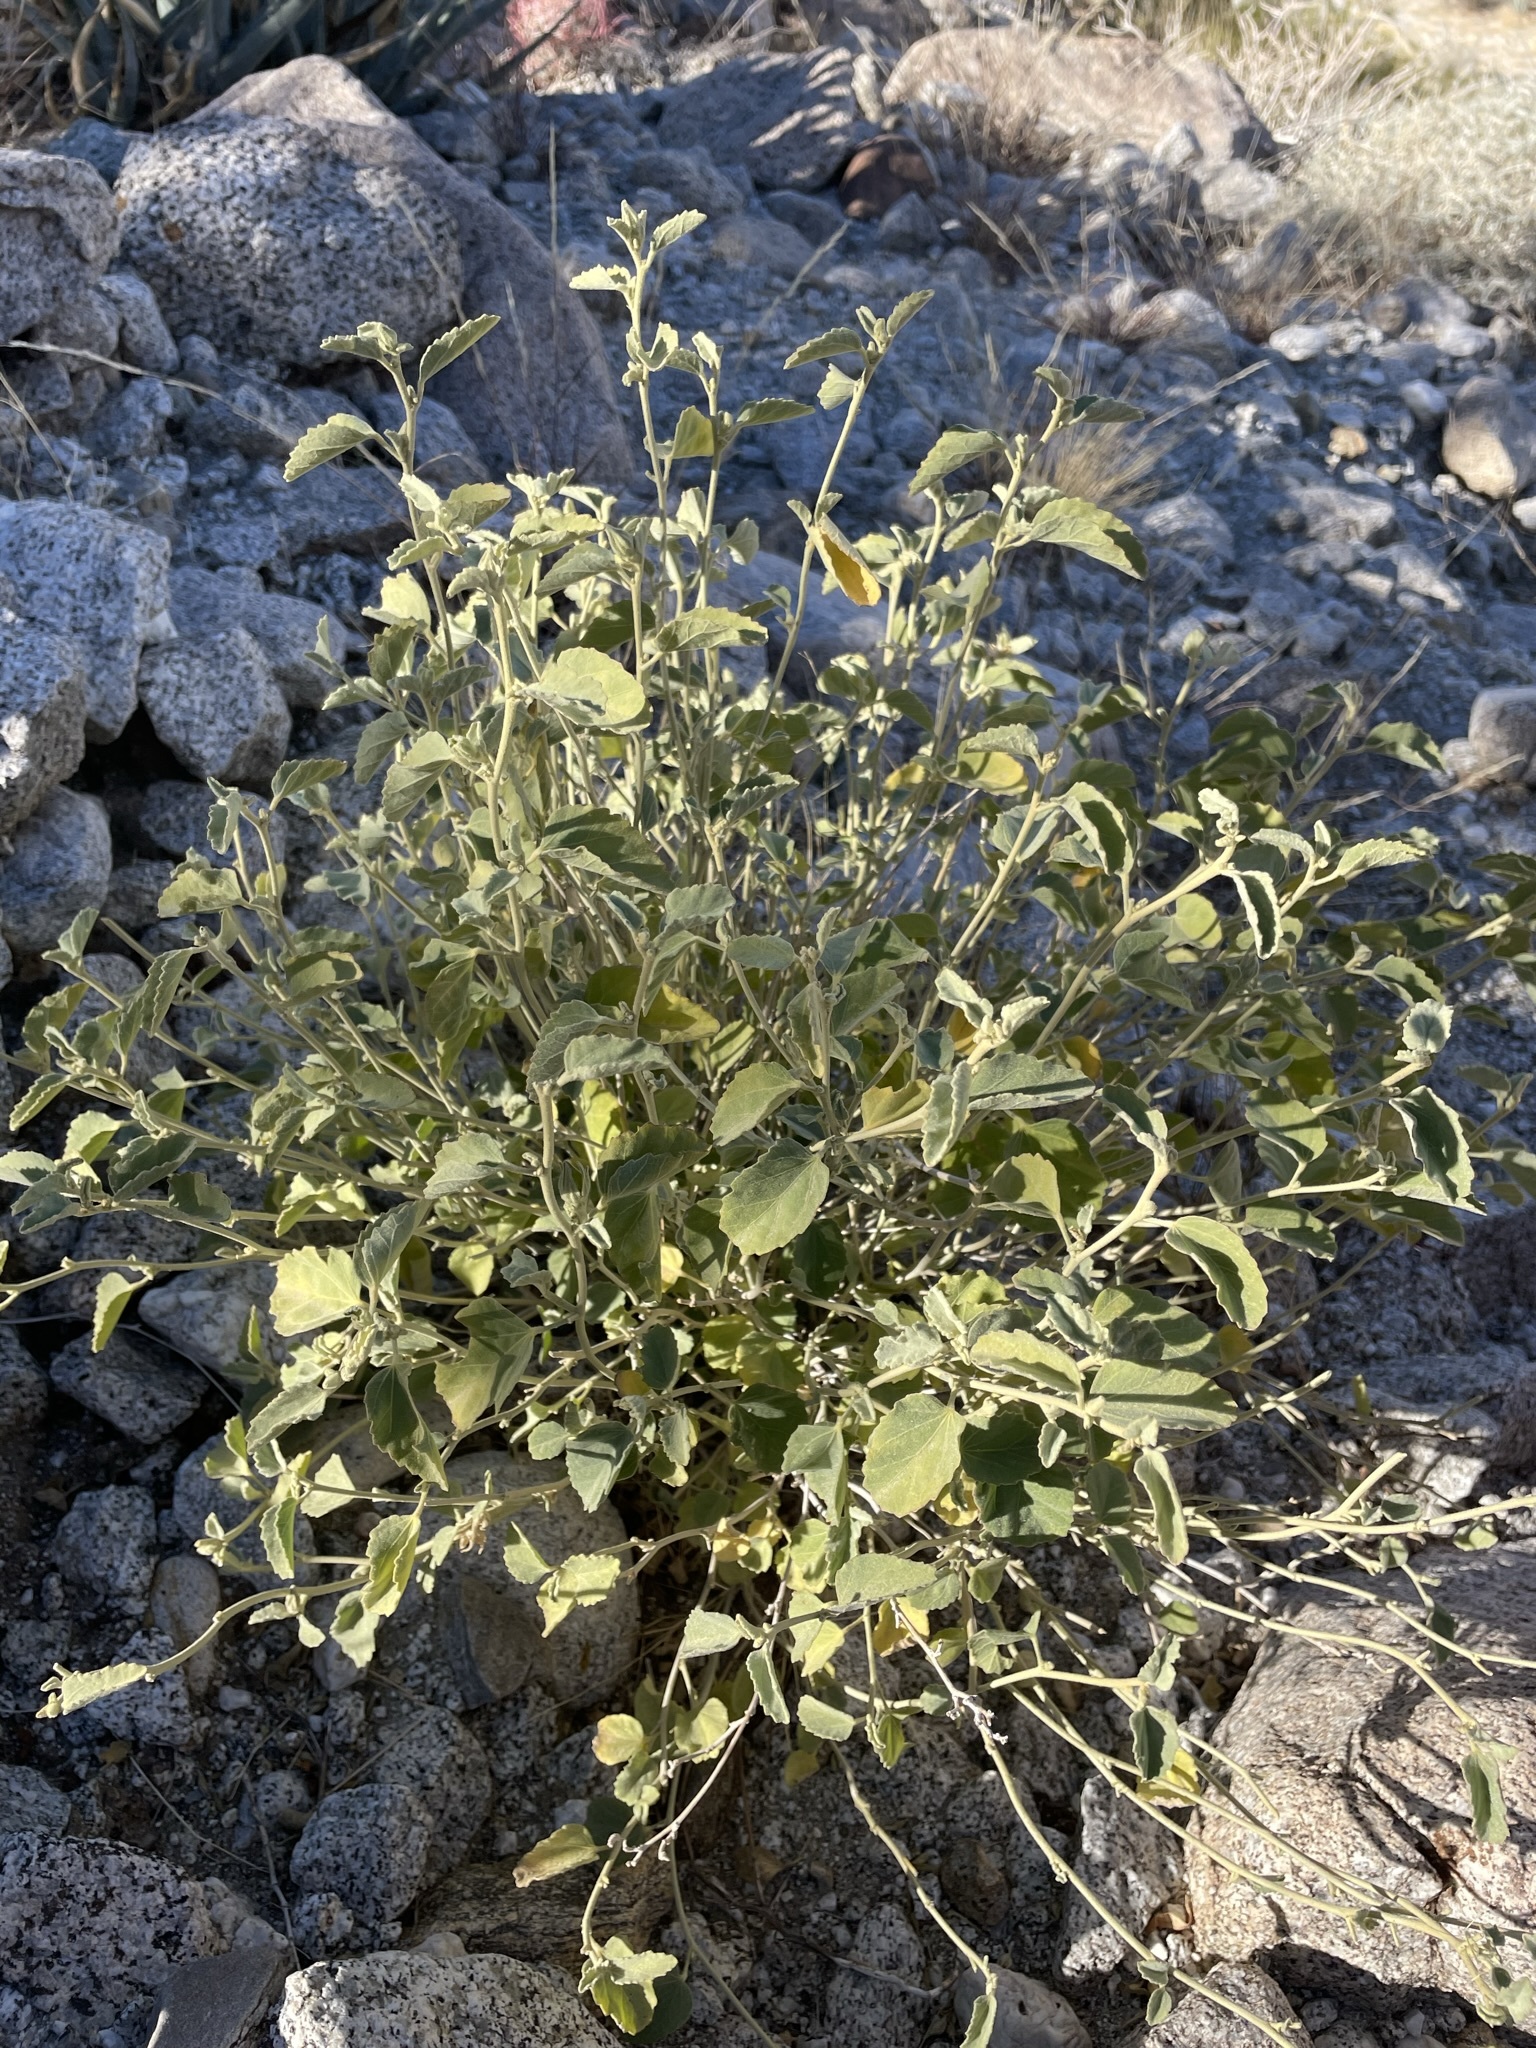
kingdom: Plantae
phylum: Tracheophyta
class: Magnoliopsida
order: Malvales
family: Malvaceae
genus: Hibiscus
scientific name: Hibiscus denudatus
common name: Paleface
